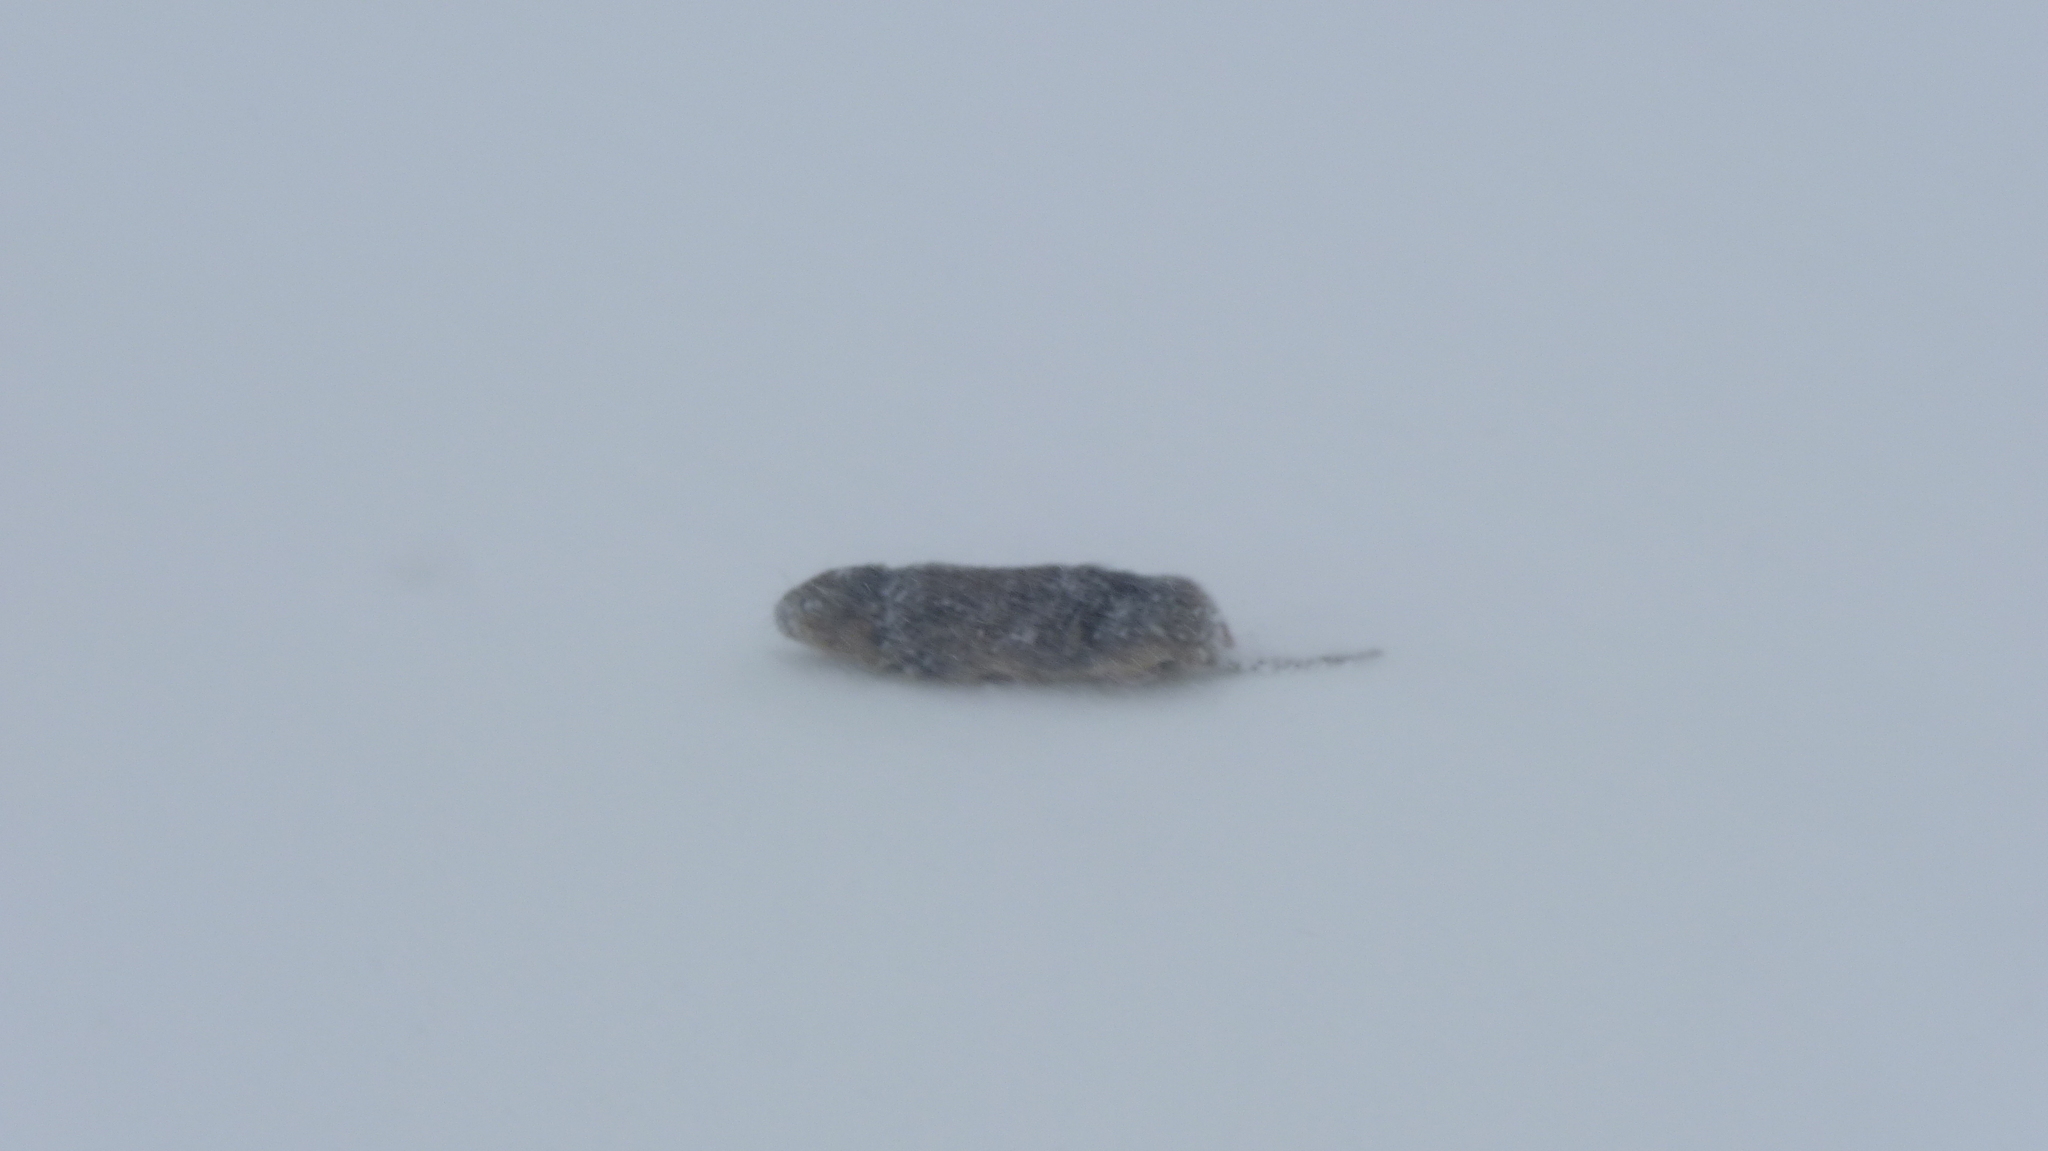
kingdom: Animalia
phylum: Chordata
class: Mammalia
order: Rodentia
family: Cricetidae
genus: Arvicola
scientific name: Arvicola amphibius
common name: European water vole
